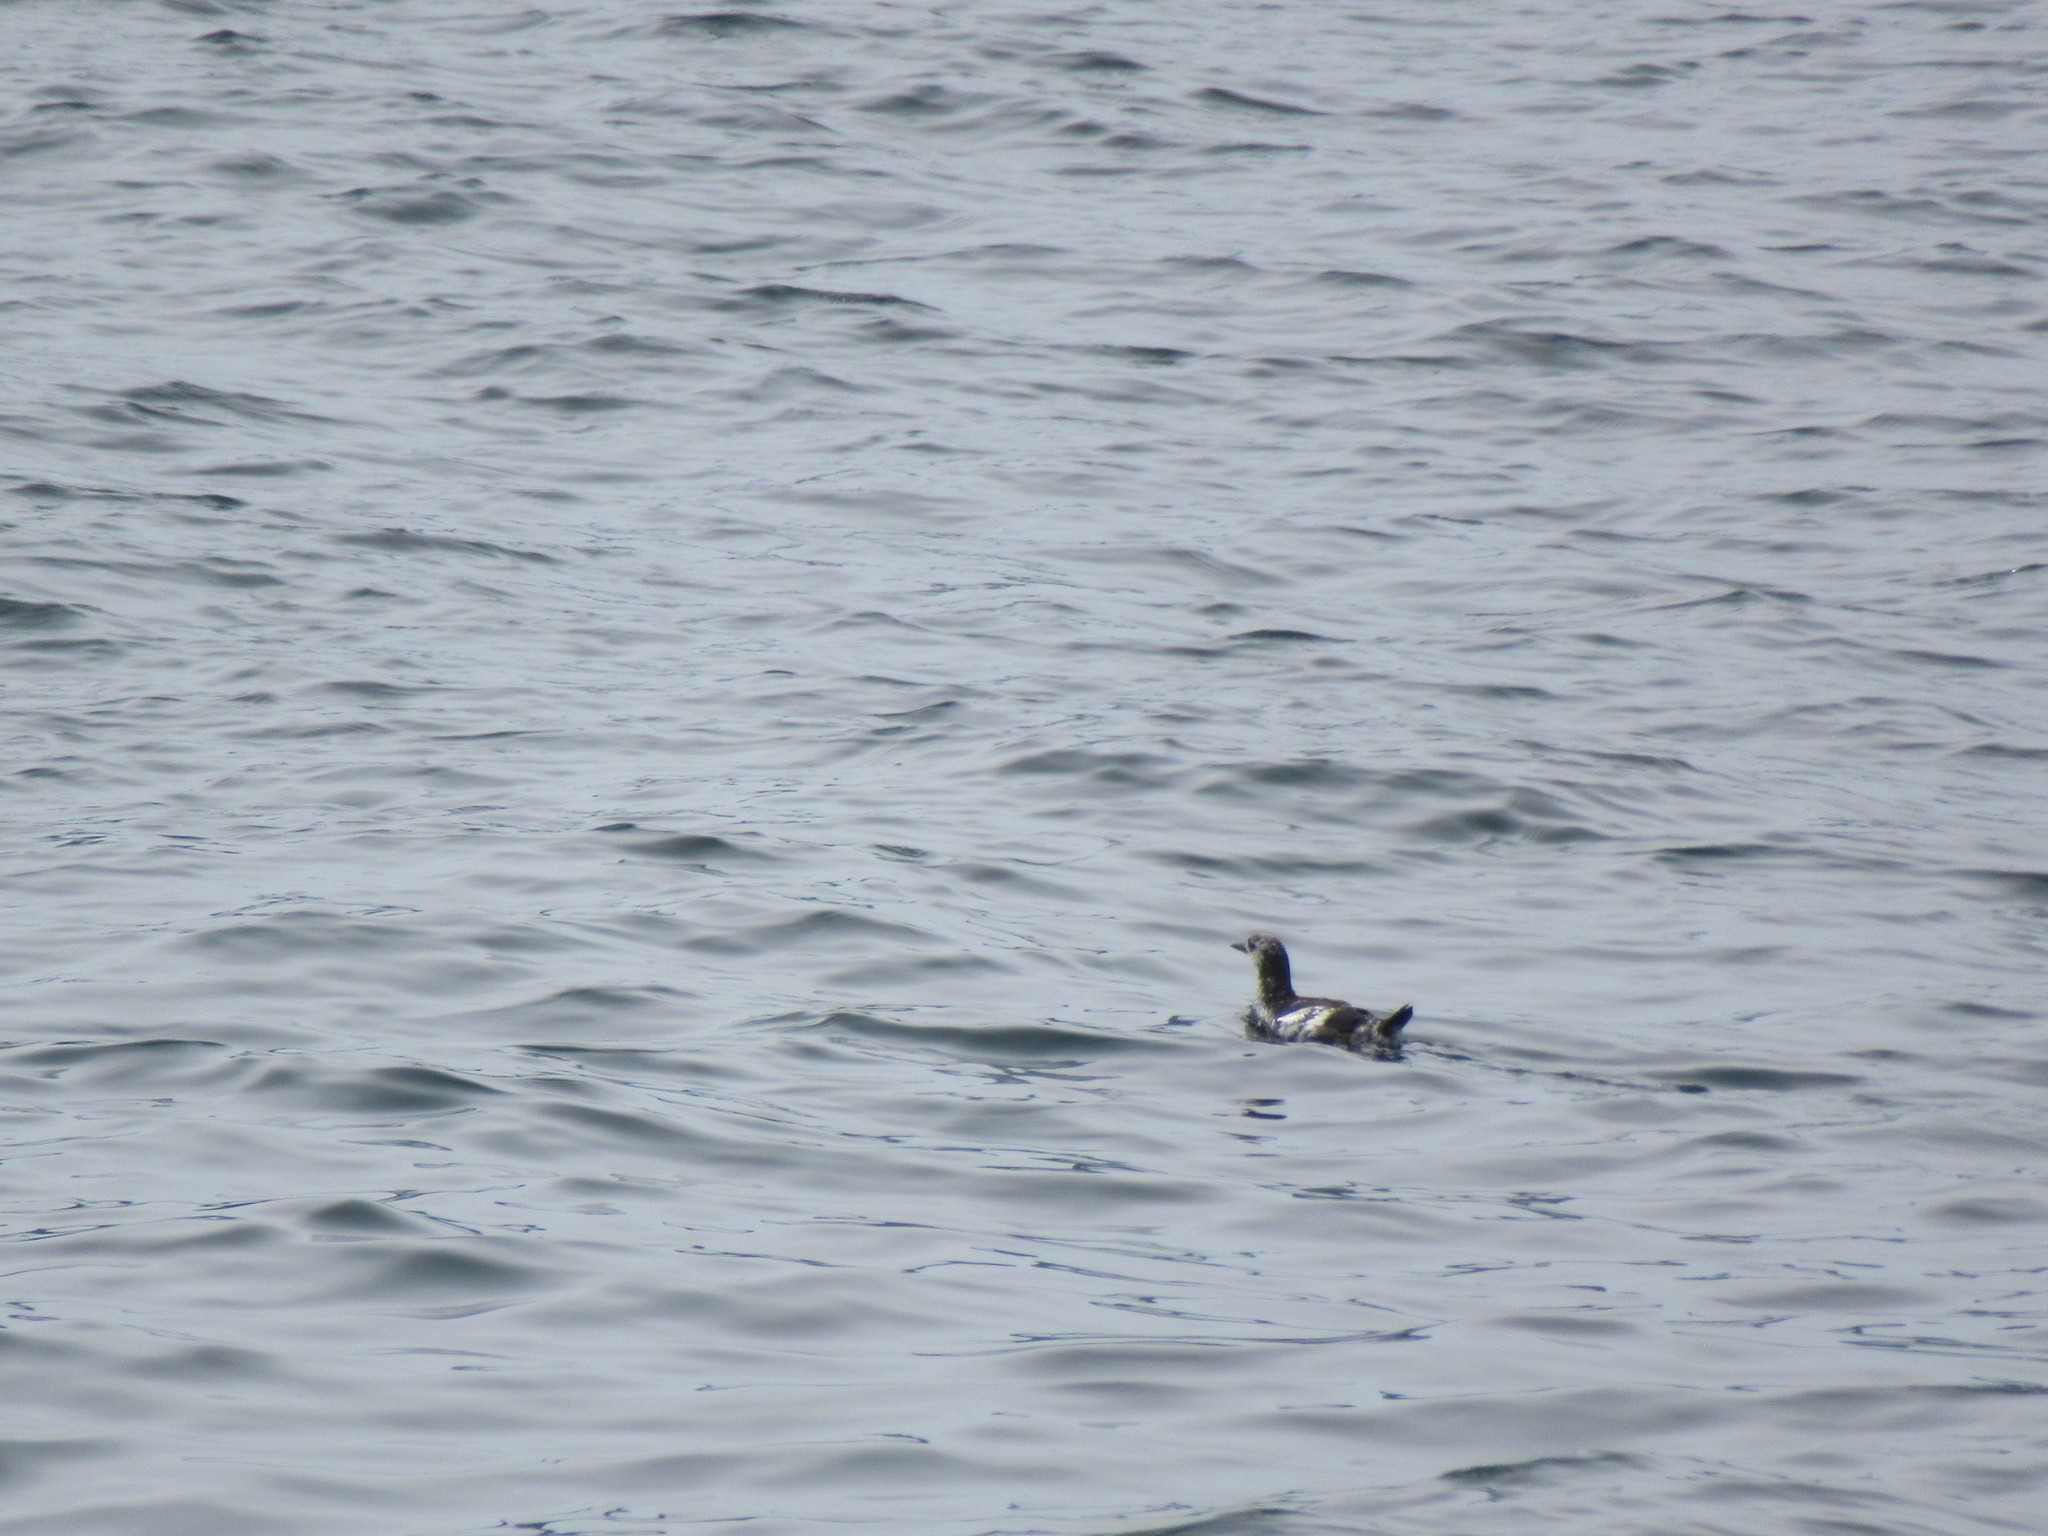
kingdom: Animalia
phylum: Chordata
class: Aves
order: Charadriiformes
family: Alcidae
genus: Cepphus
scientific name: Cepphus grylle
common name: Black guillemot
